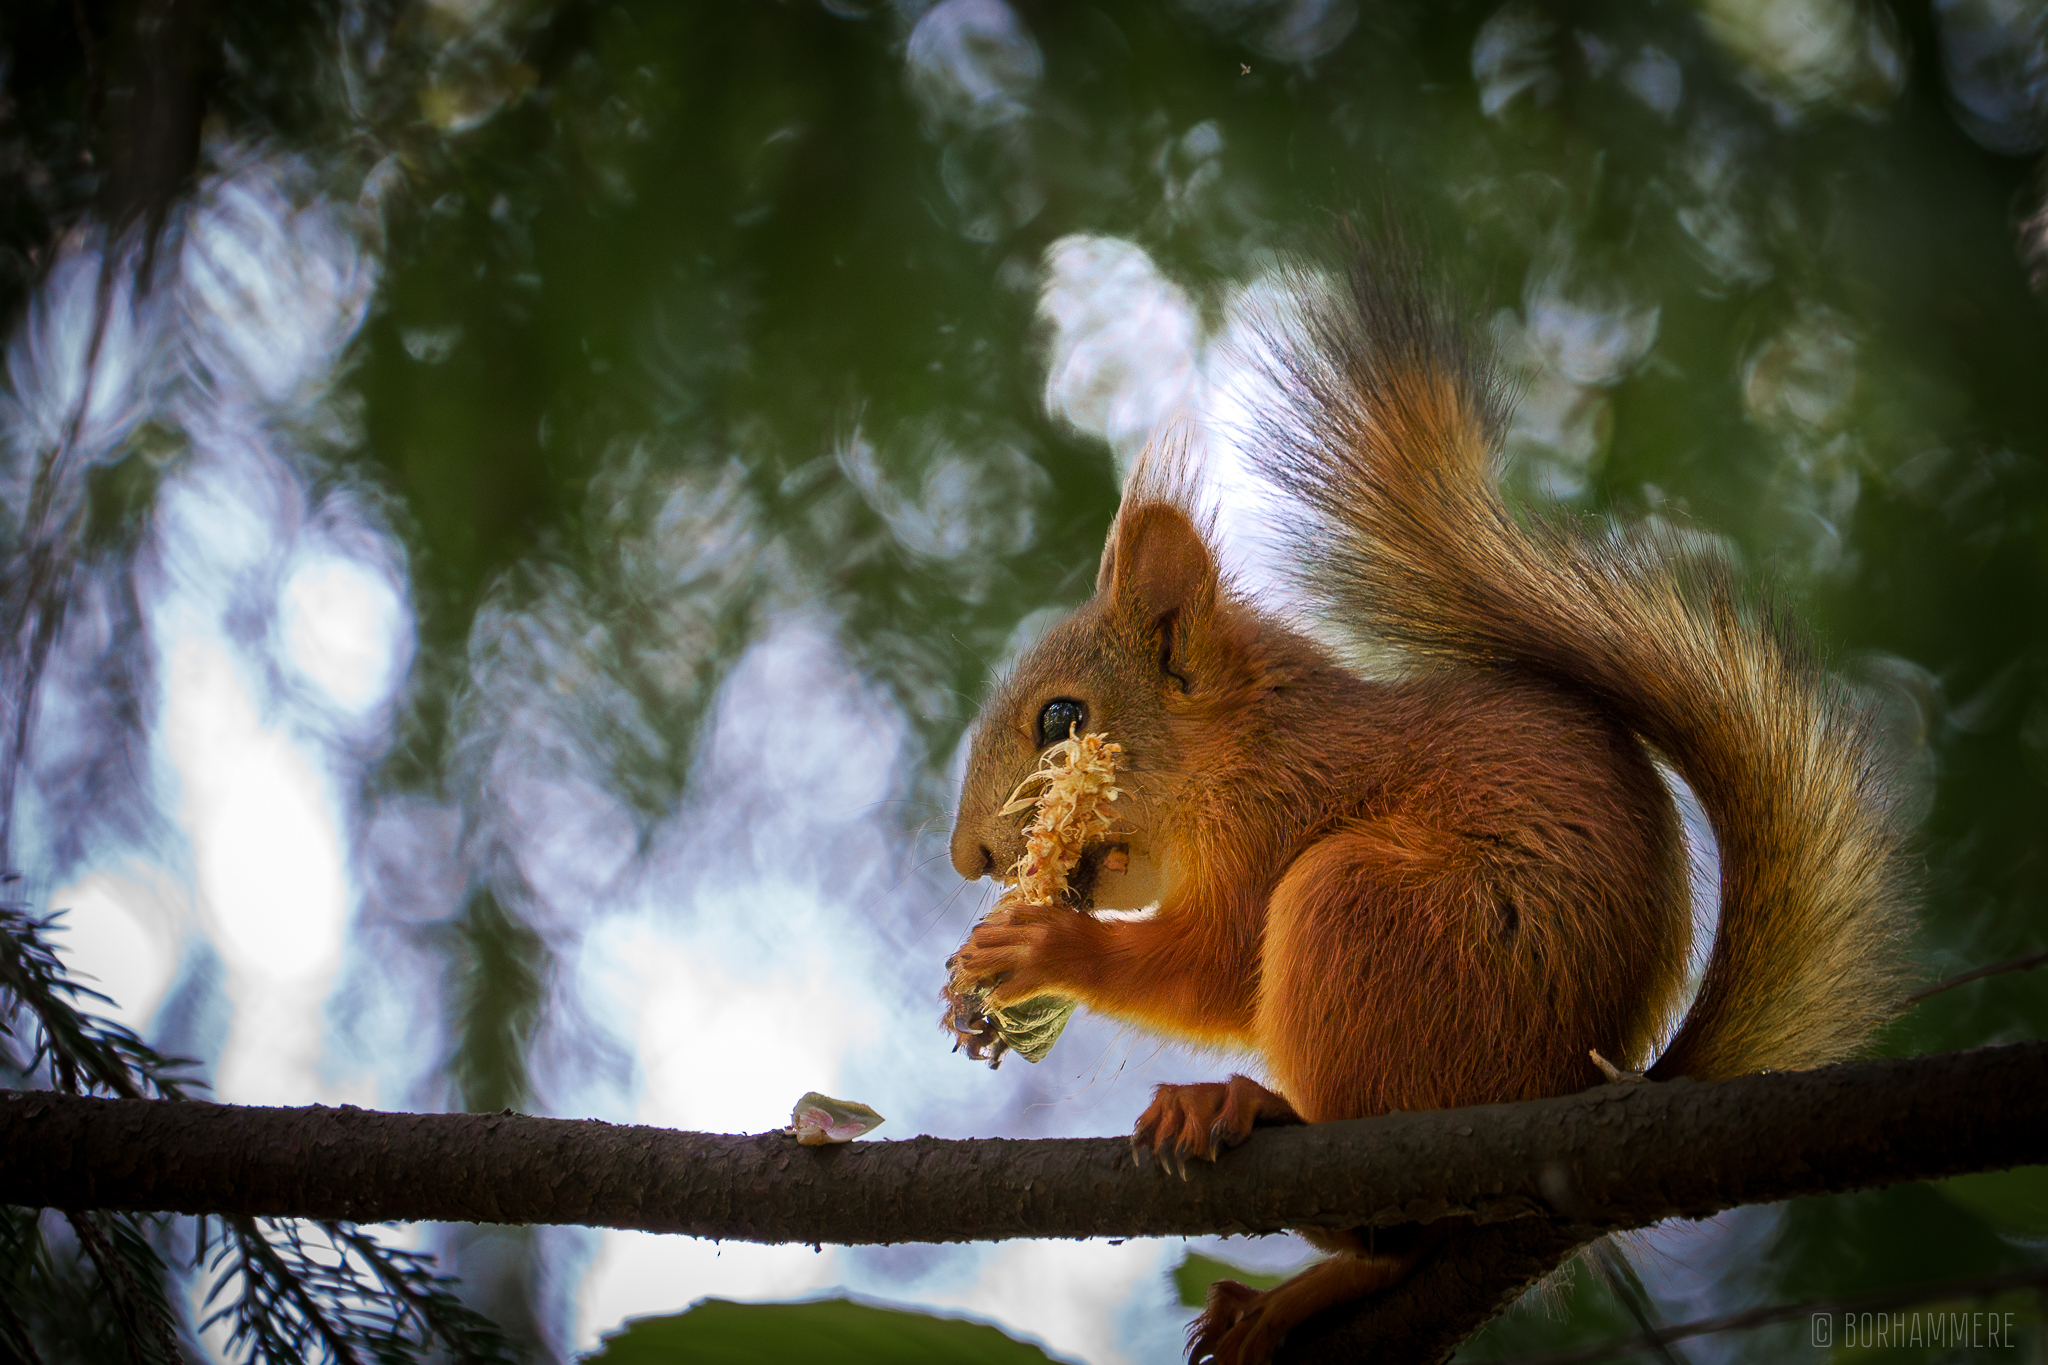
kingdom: Animalia
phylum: Chordata
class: Mammalia
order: Rodentia
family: Sciuridae
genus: Sciurus
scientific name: Sciurus vulgaris
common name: Eurasian red squirrel
